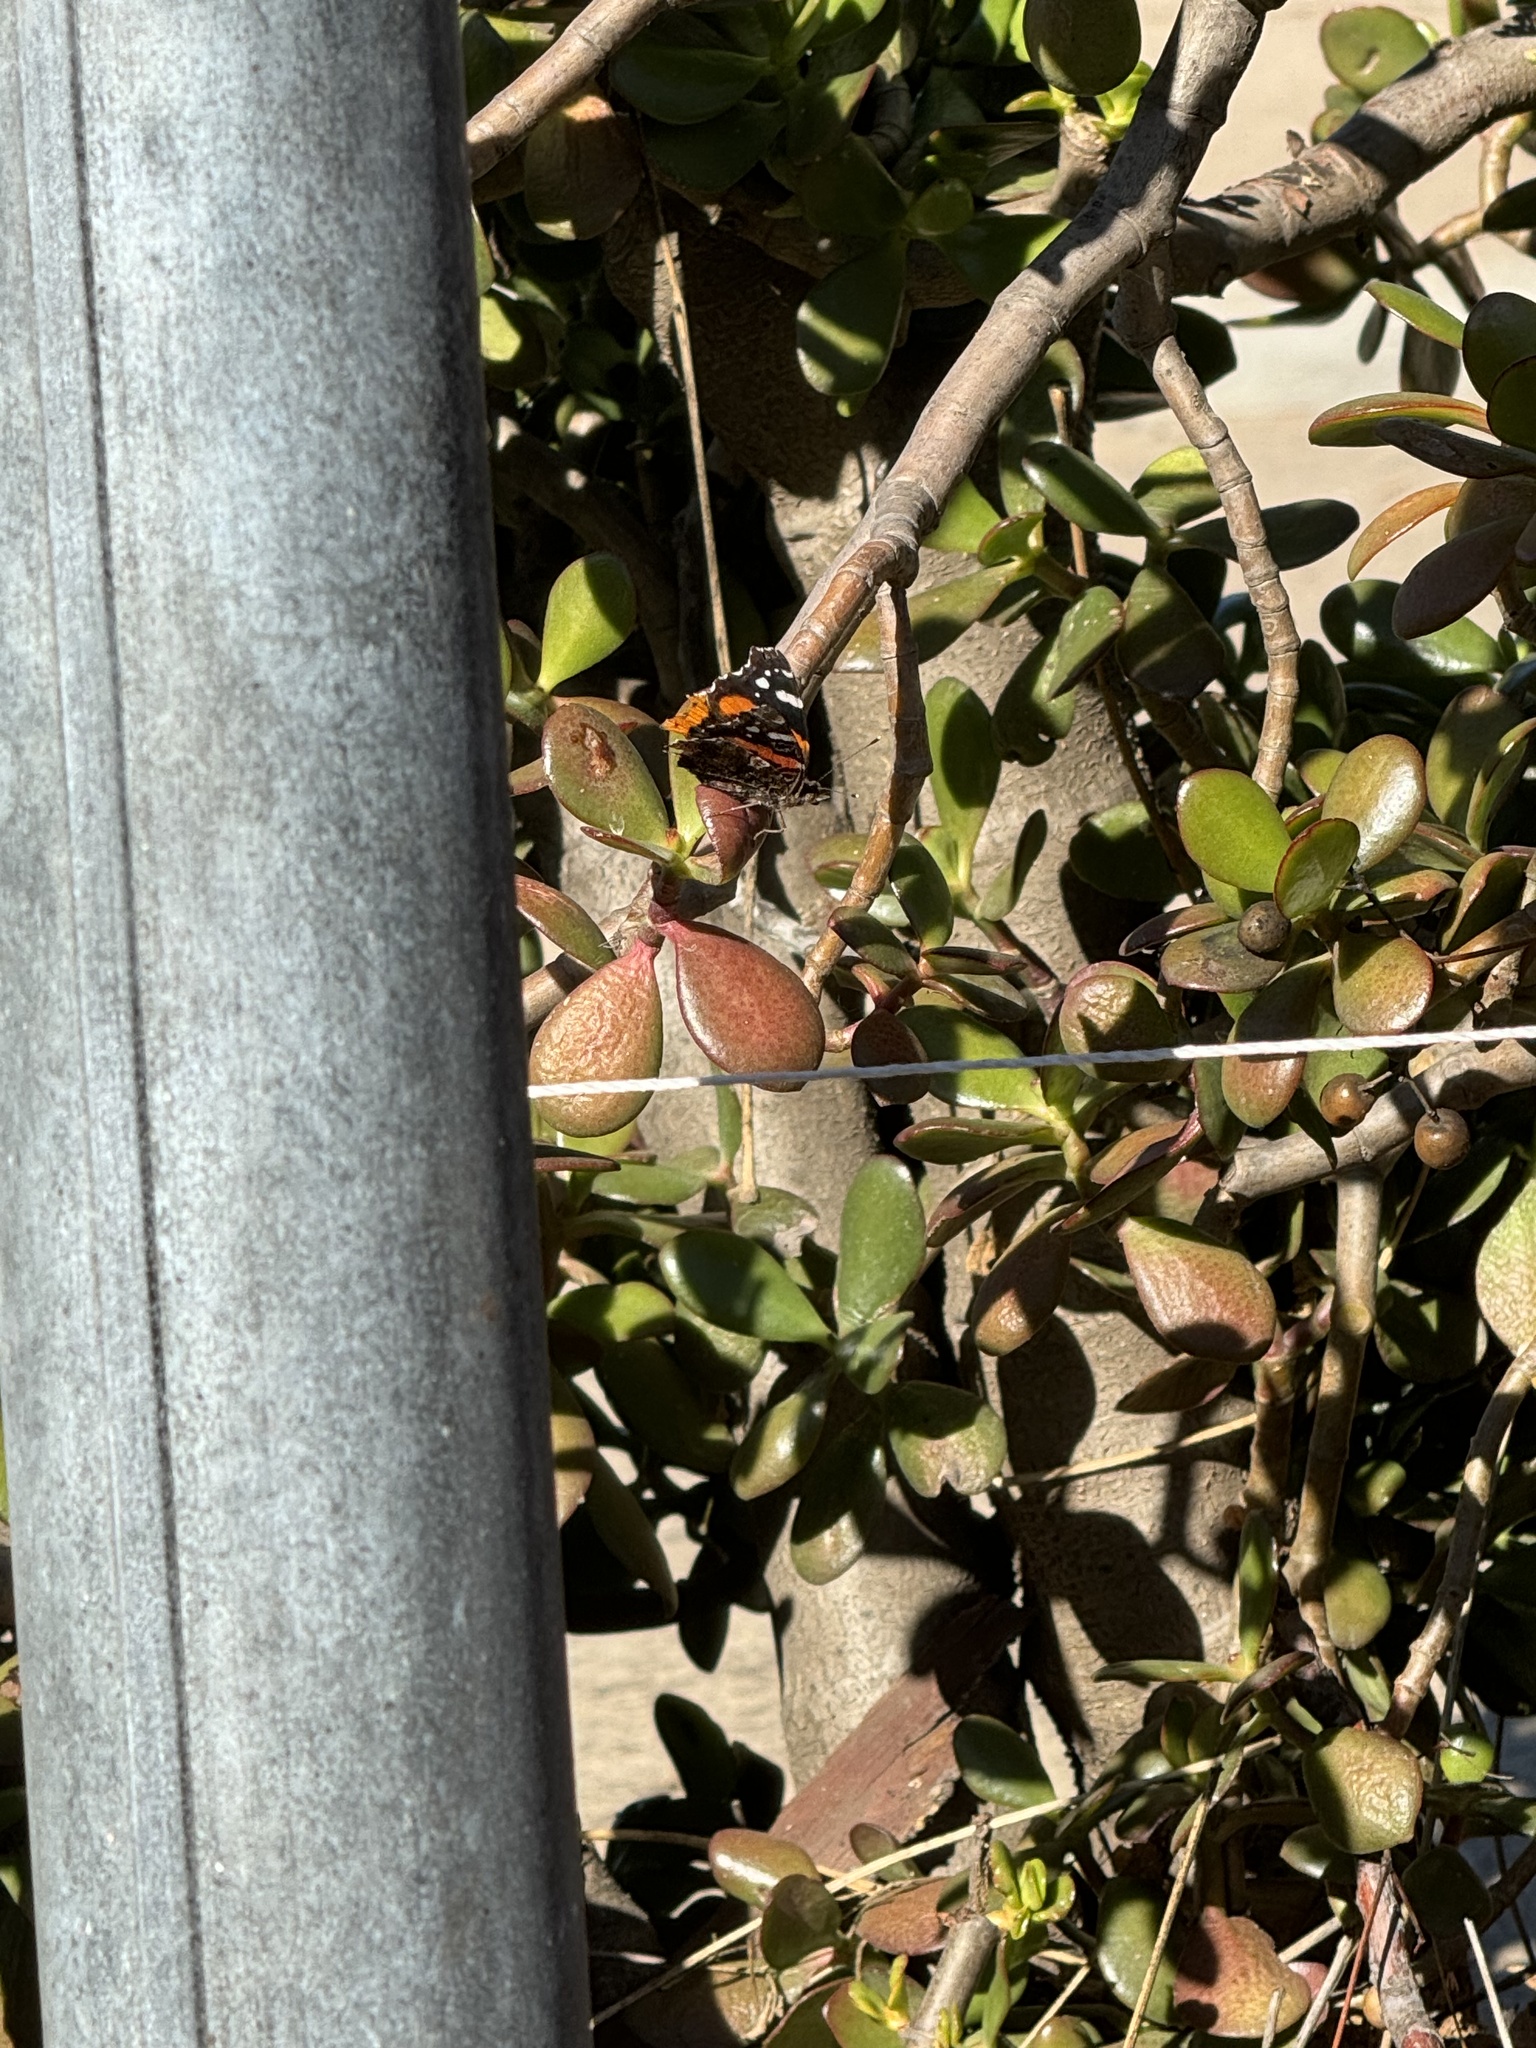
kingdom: Animalia
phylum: Arthropoda
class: Insecta
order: Lepidoptera
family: Nymphalidae
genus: Vanessa
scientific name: Vanessa atalanta
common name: Red admiral
